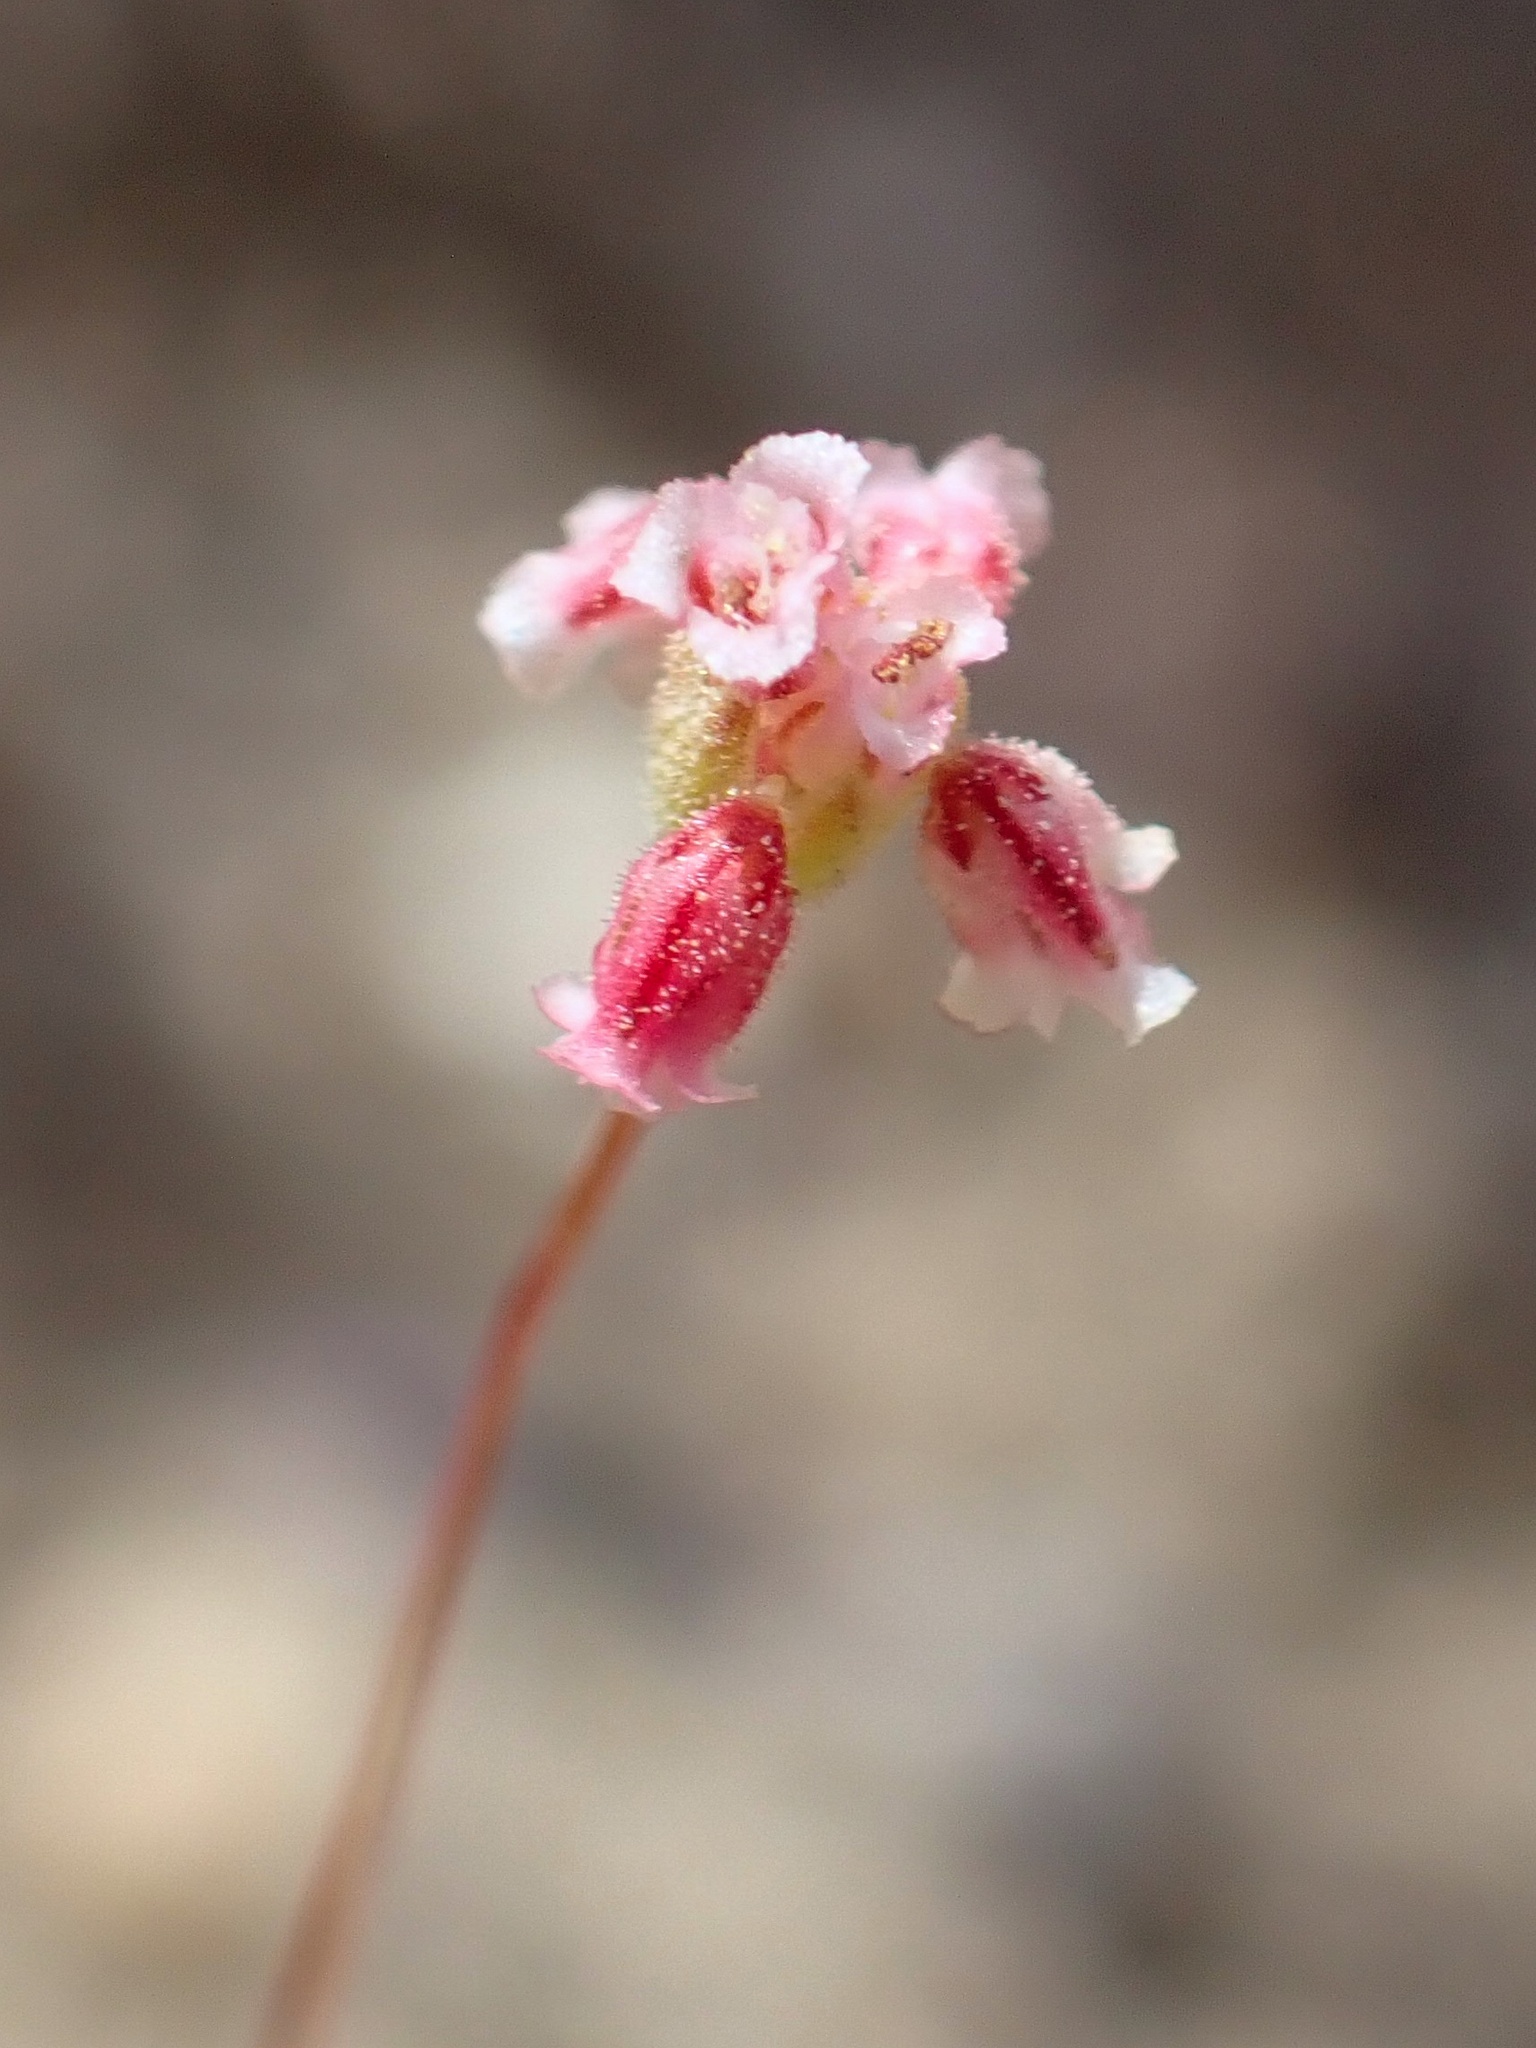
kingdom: Plantae
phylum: Tracheophyta
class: Magnoliopsida
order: Caryophyllales
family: Polygonaceae
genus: Eriogonum
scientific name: Eriogonum gracillimum
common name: Rose-and-white wild buckwheat
